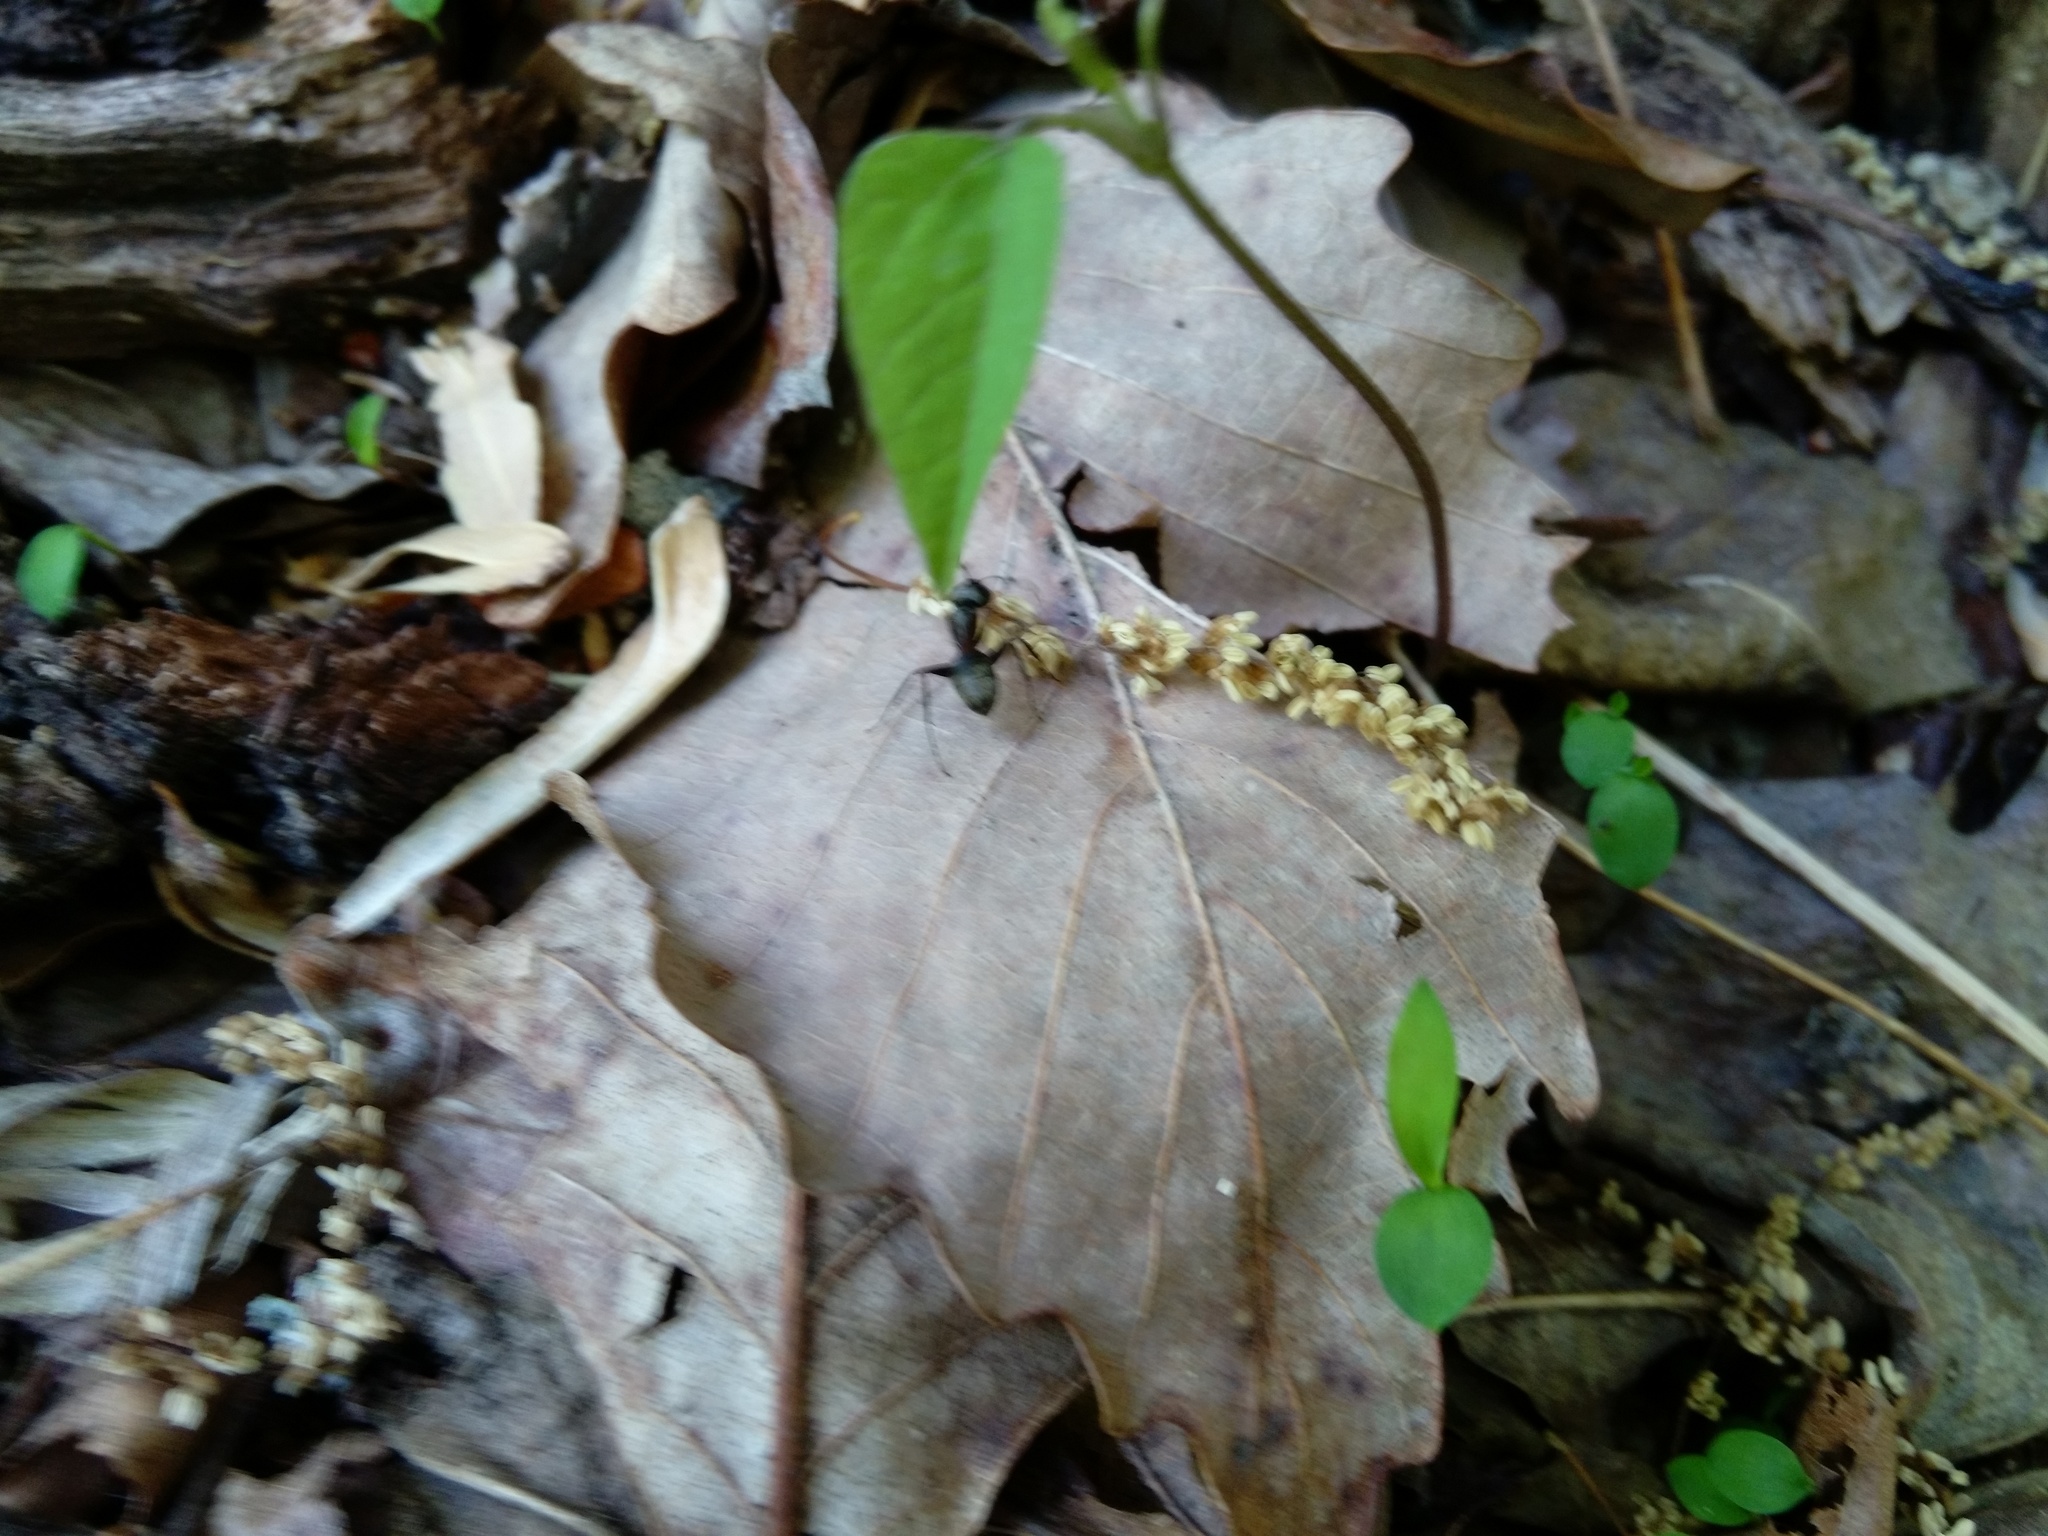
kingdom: Animalia
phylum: Arthropoda
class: Insecta
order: Hymenoptera
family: Formicidae
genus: Camponotus
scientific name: Camponotus pennsylvanicus
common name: Black carpenter ant
